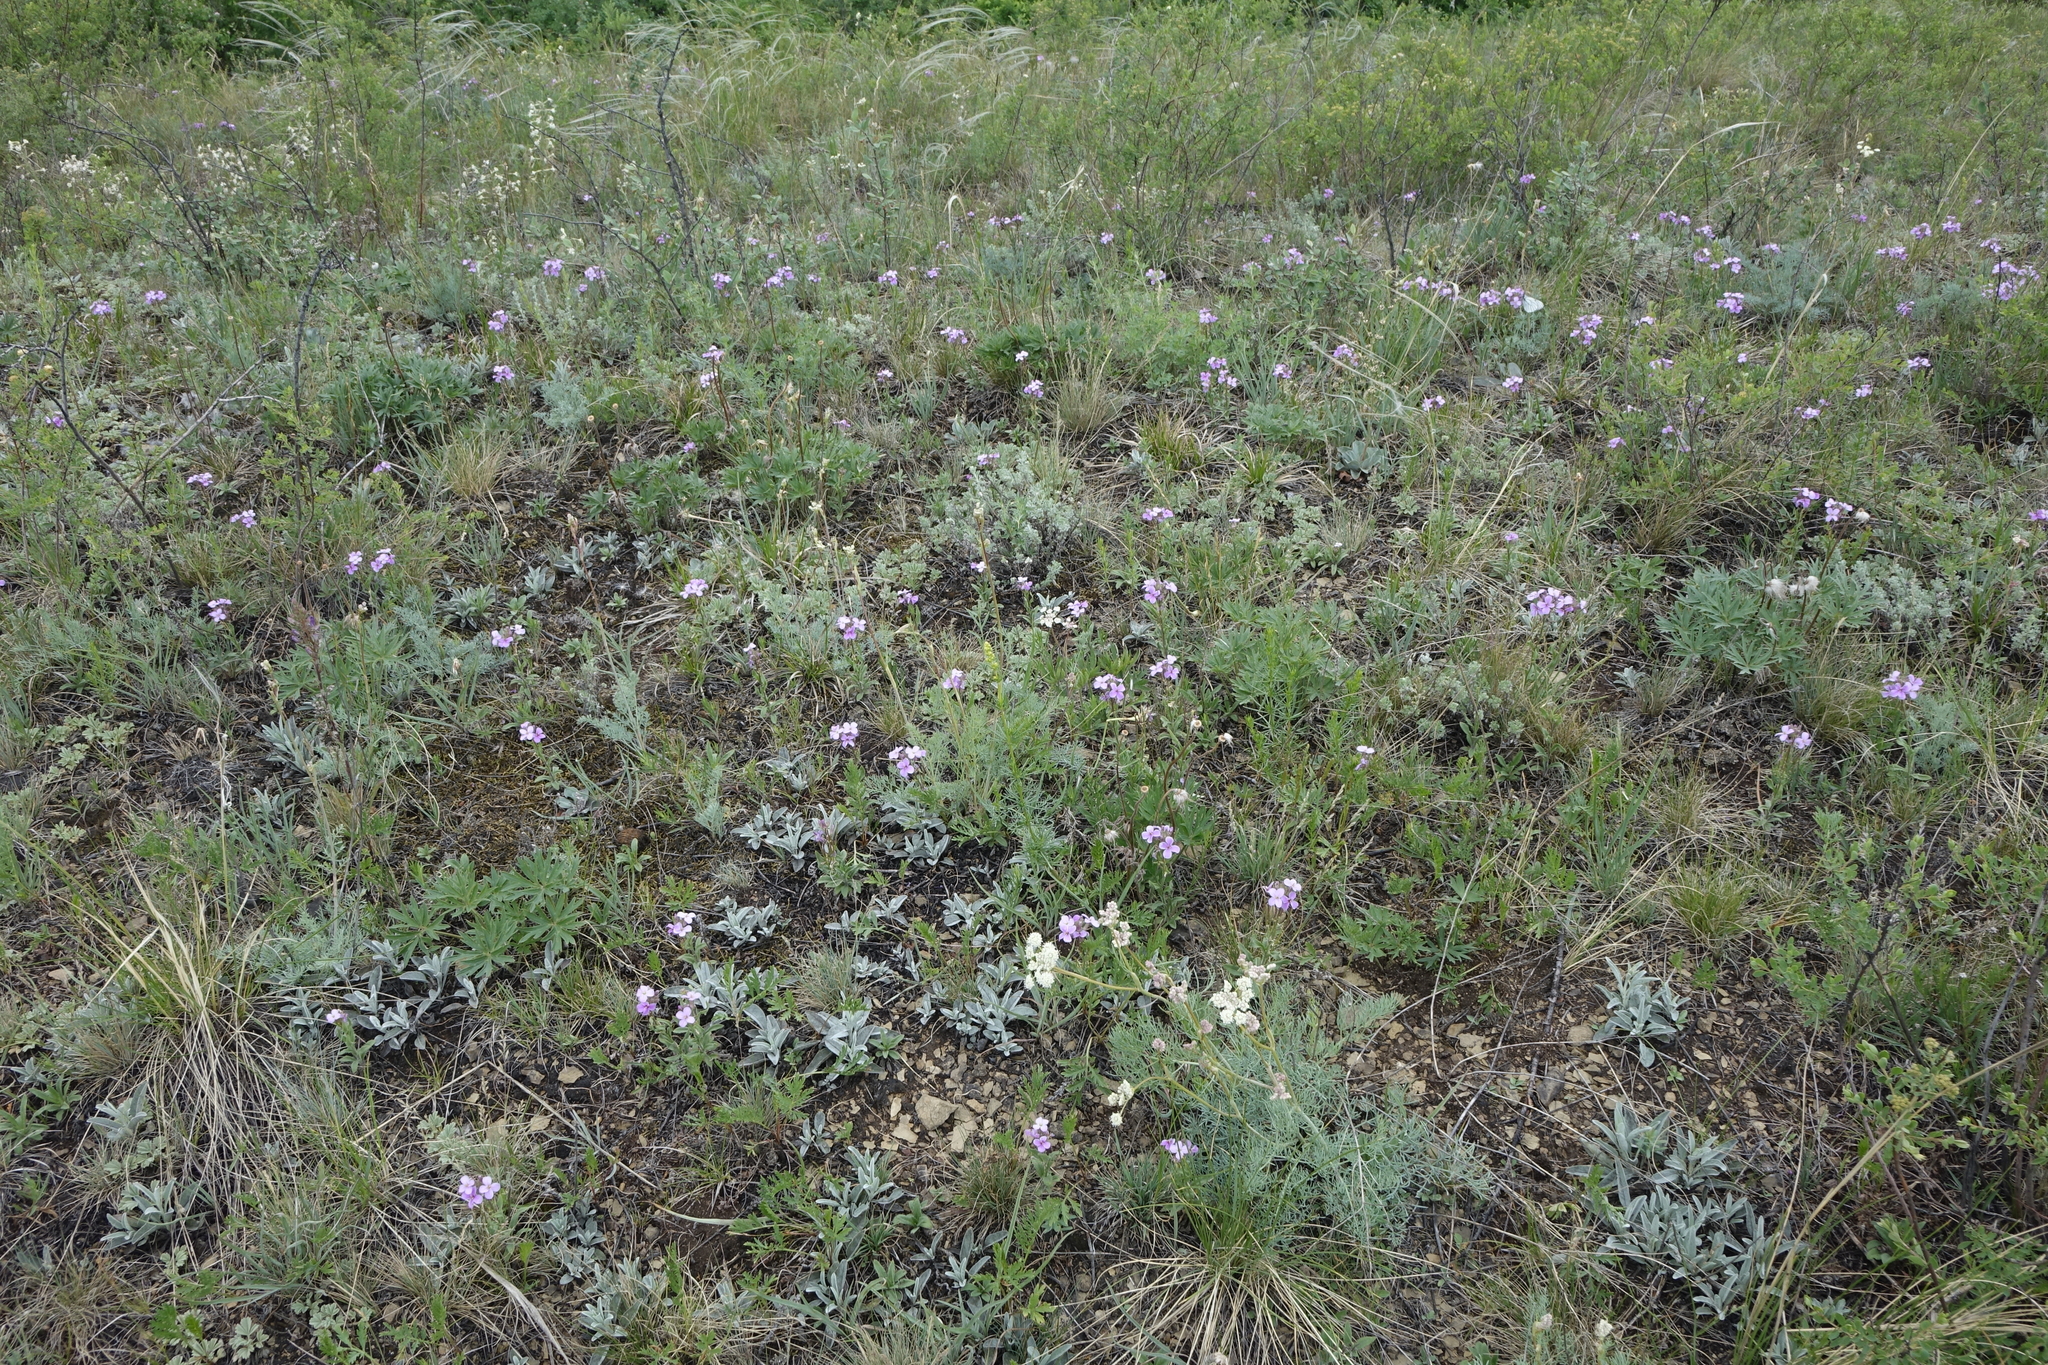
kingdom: Plantae
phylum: Tracheophyta
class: Magnoliopsida
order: Brassicales
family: Brassicaceae
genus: Clausia
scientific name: Clausia aprica
